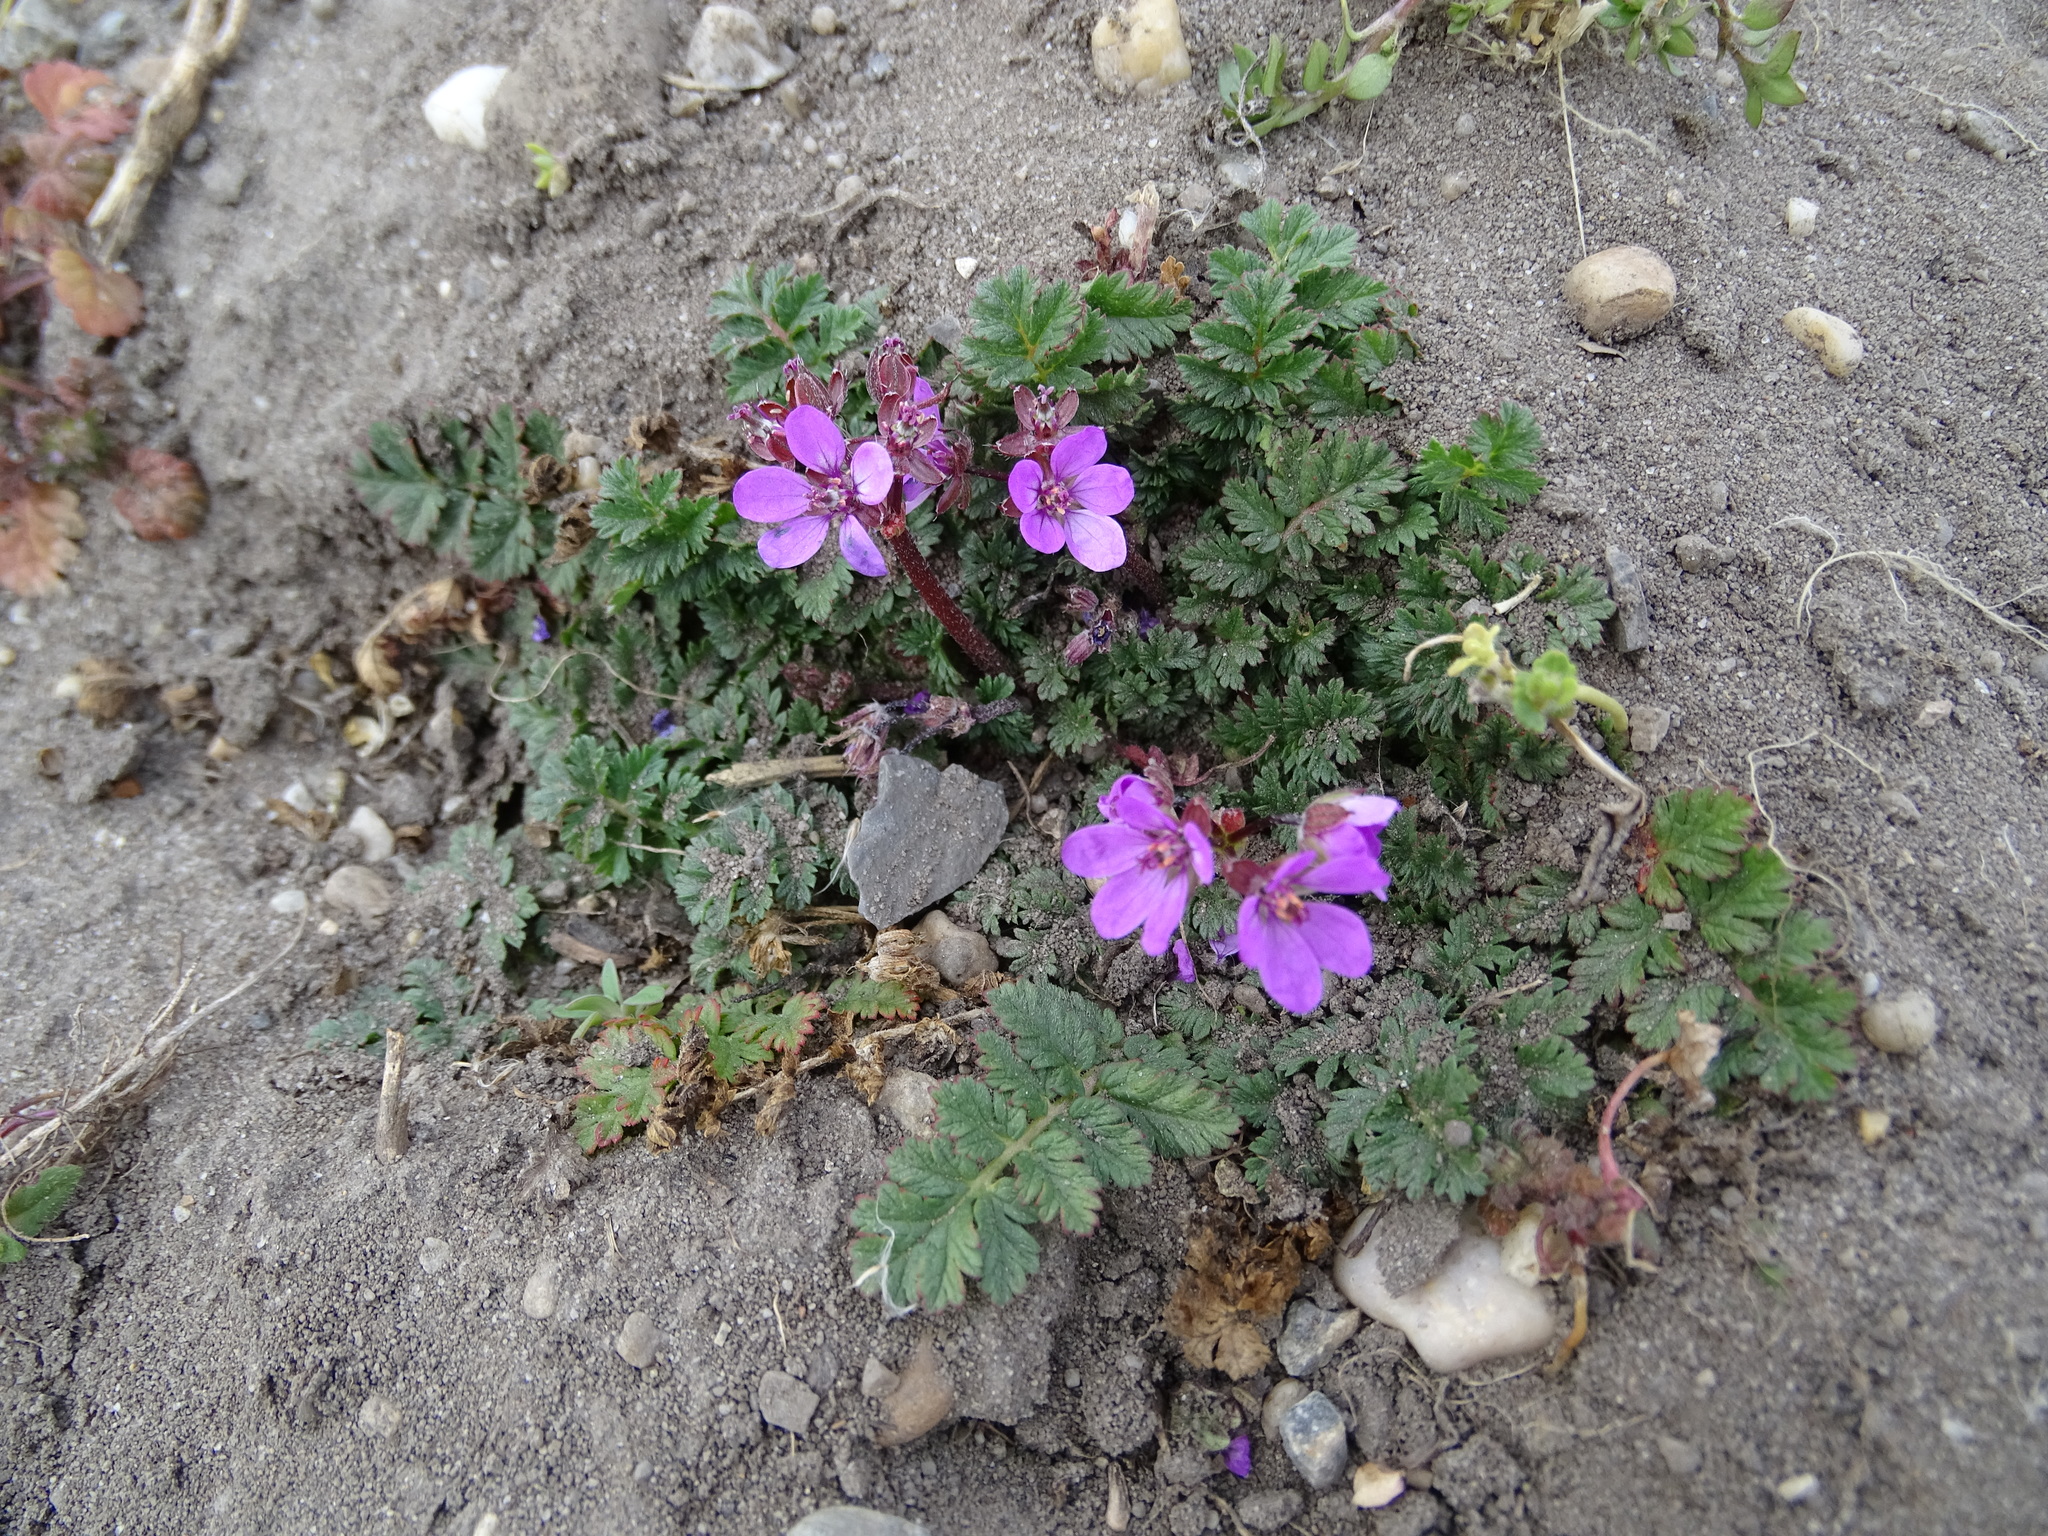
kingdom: Plantae
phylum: Tracheophyta
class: Magnoliopsida
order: Geraniales
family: Geraniaceae
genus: Erodium
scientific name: Erodium cicutarium
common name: Common stork's-bill
